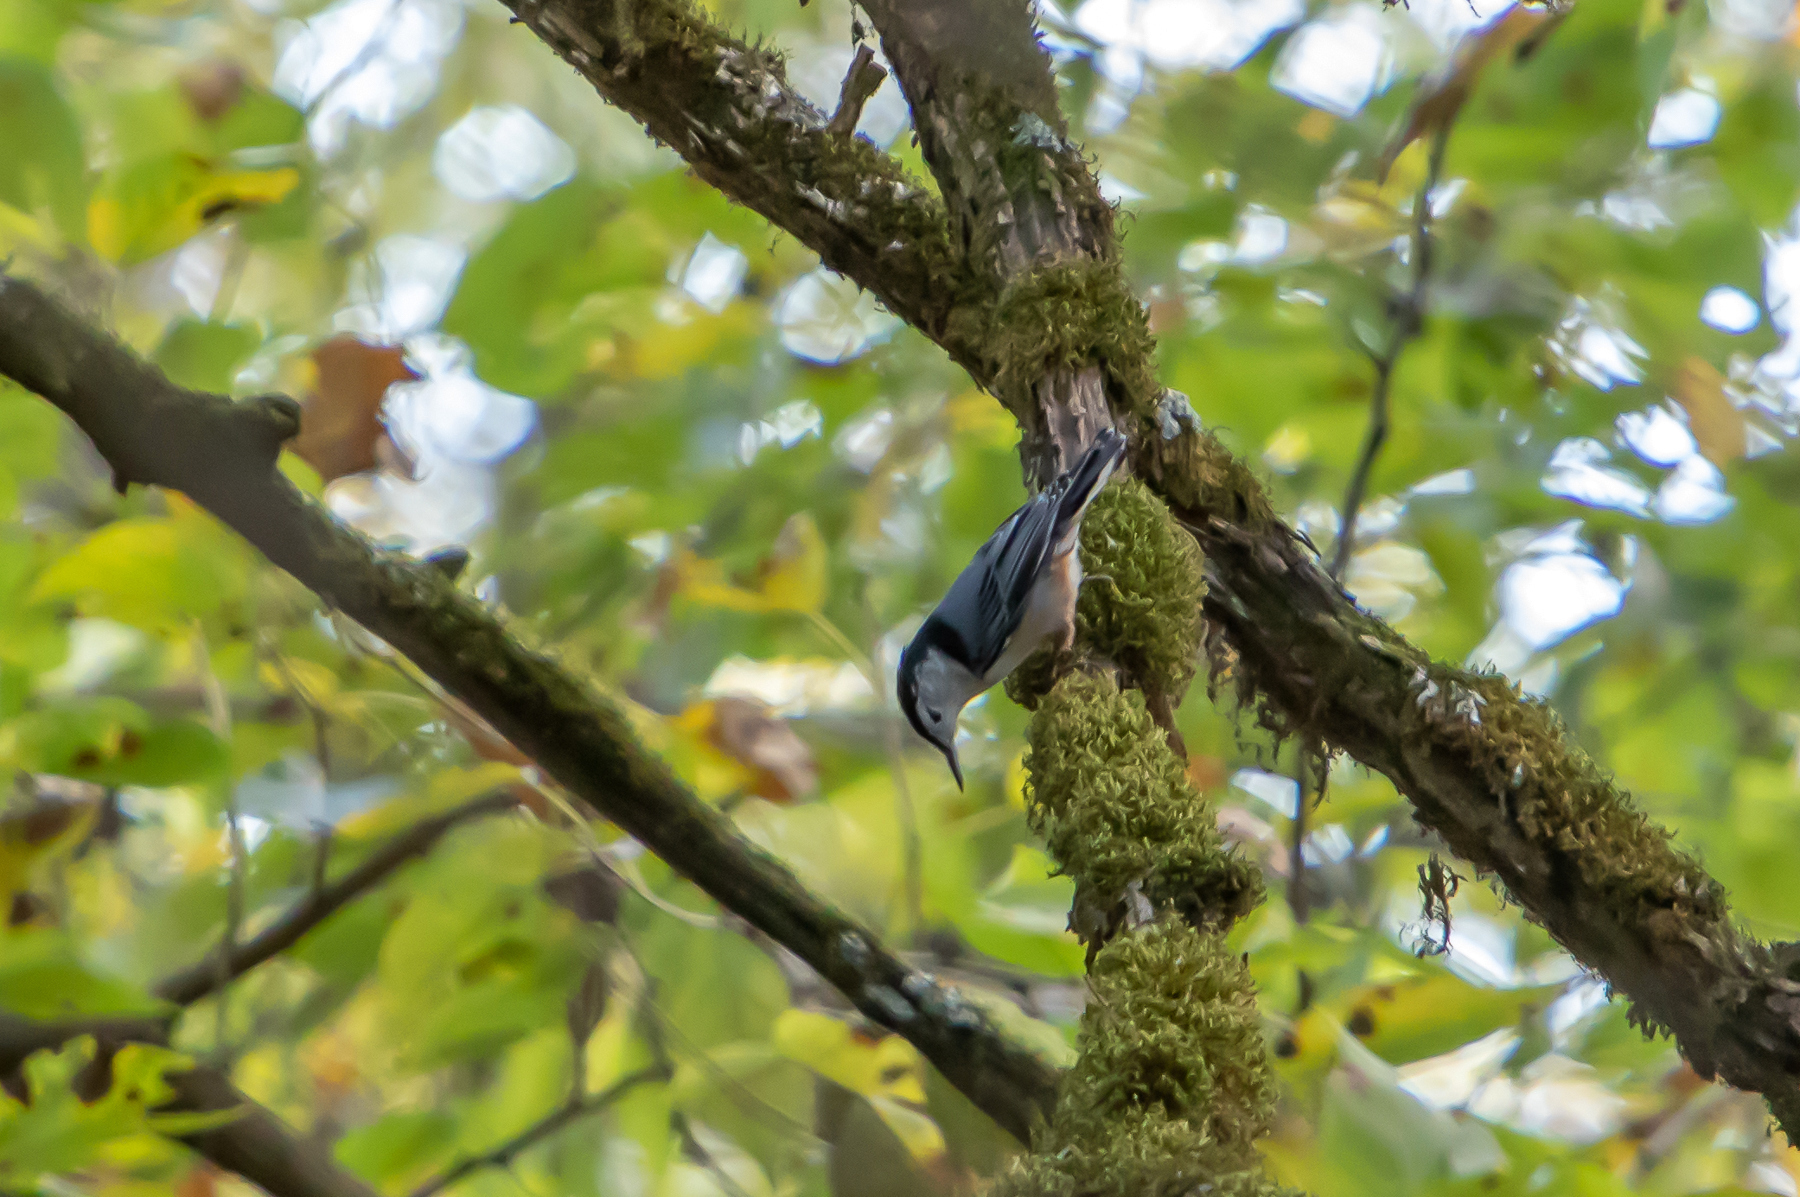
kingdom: Animalia
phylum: Chordata
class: Aves
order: Passeriformes
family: Sittidae
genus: Sitta
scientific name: Sitta carolinensis
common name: White-breasted nuthatch
